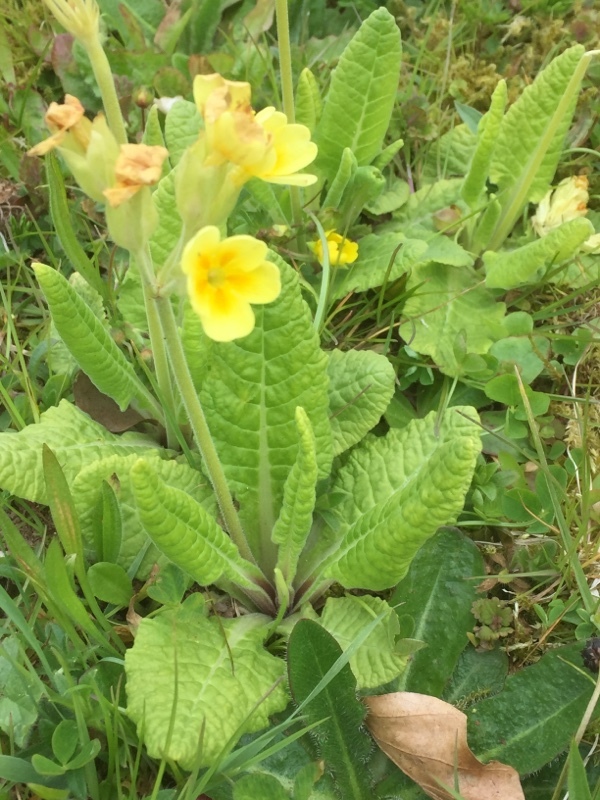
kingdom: Plantae
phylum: Tracheophyta
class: Magnoliopsida
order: Ericales
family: Primulaceae
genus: Primula
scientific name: Primula elatior
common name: Oxlip
